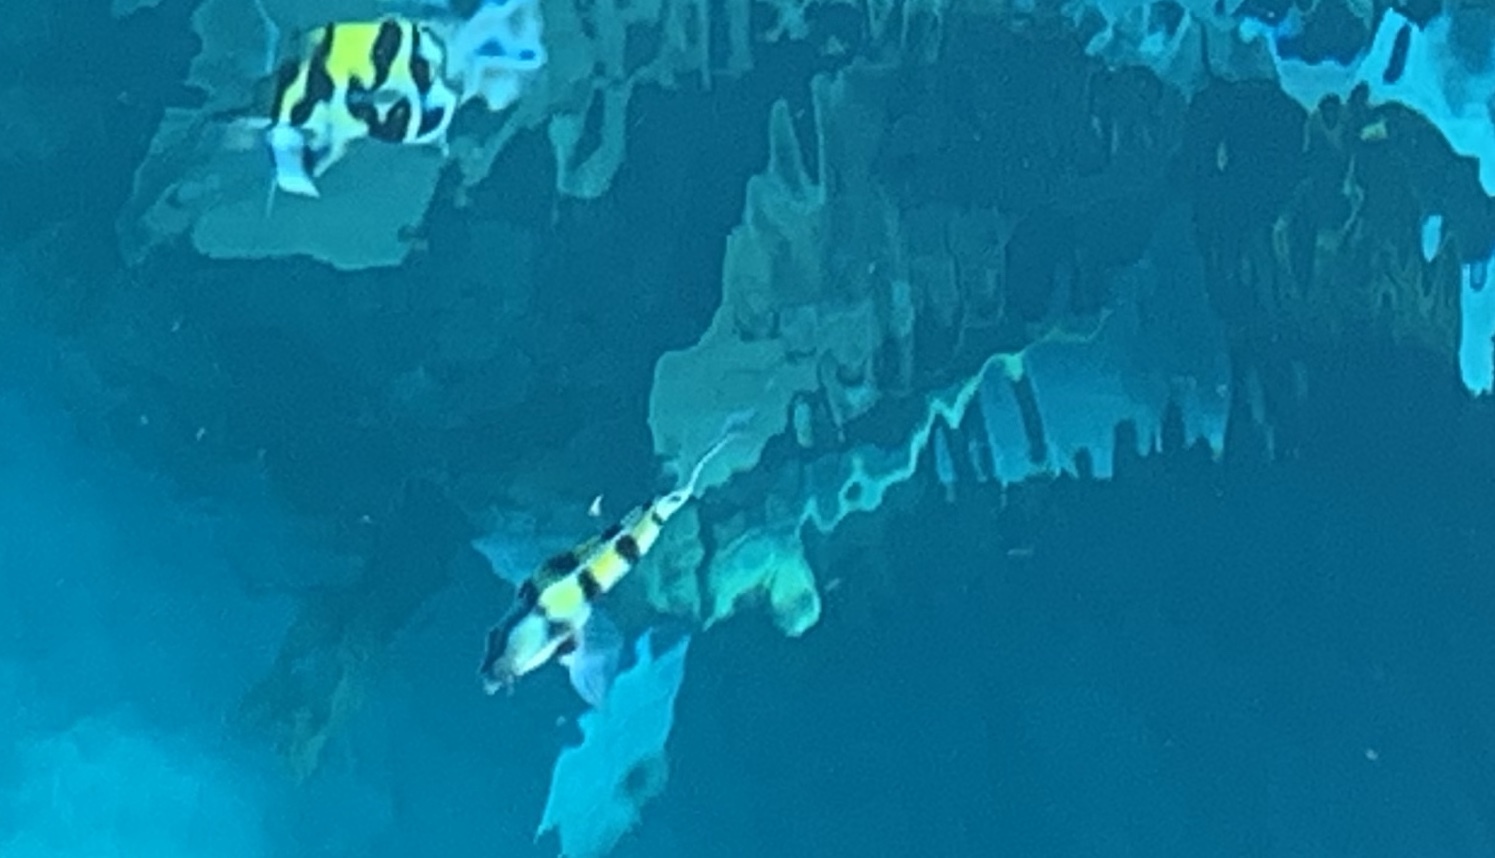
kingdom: Animalia
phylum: Chordata
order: Perciformes
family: Pomacentridae
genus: Abudefduf
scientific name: Abudefduf saxatilis
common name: Sergeant major
